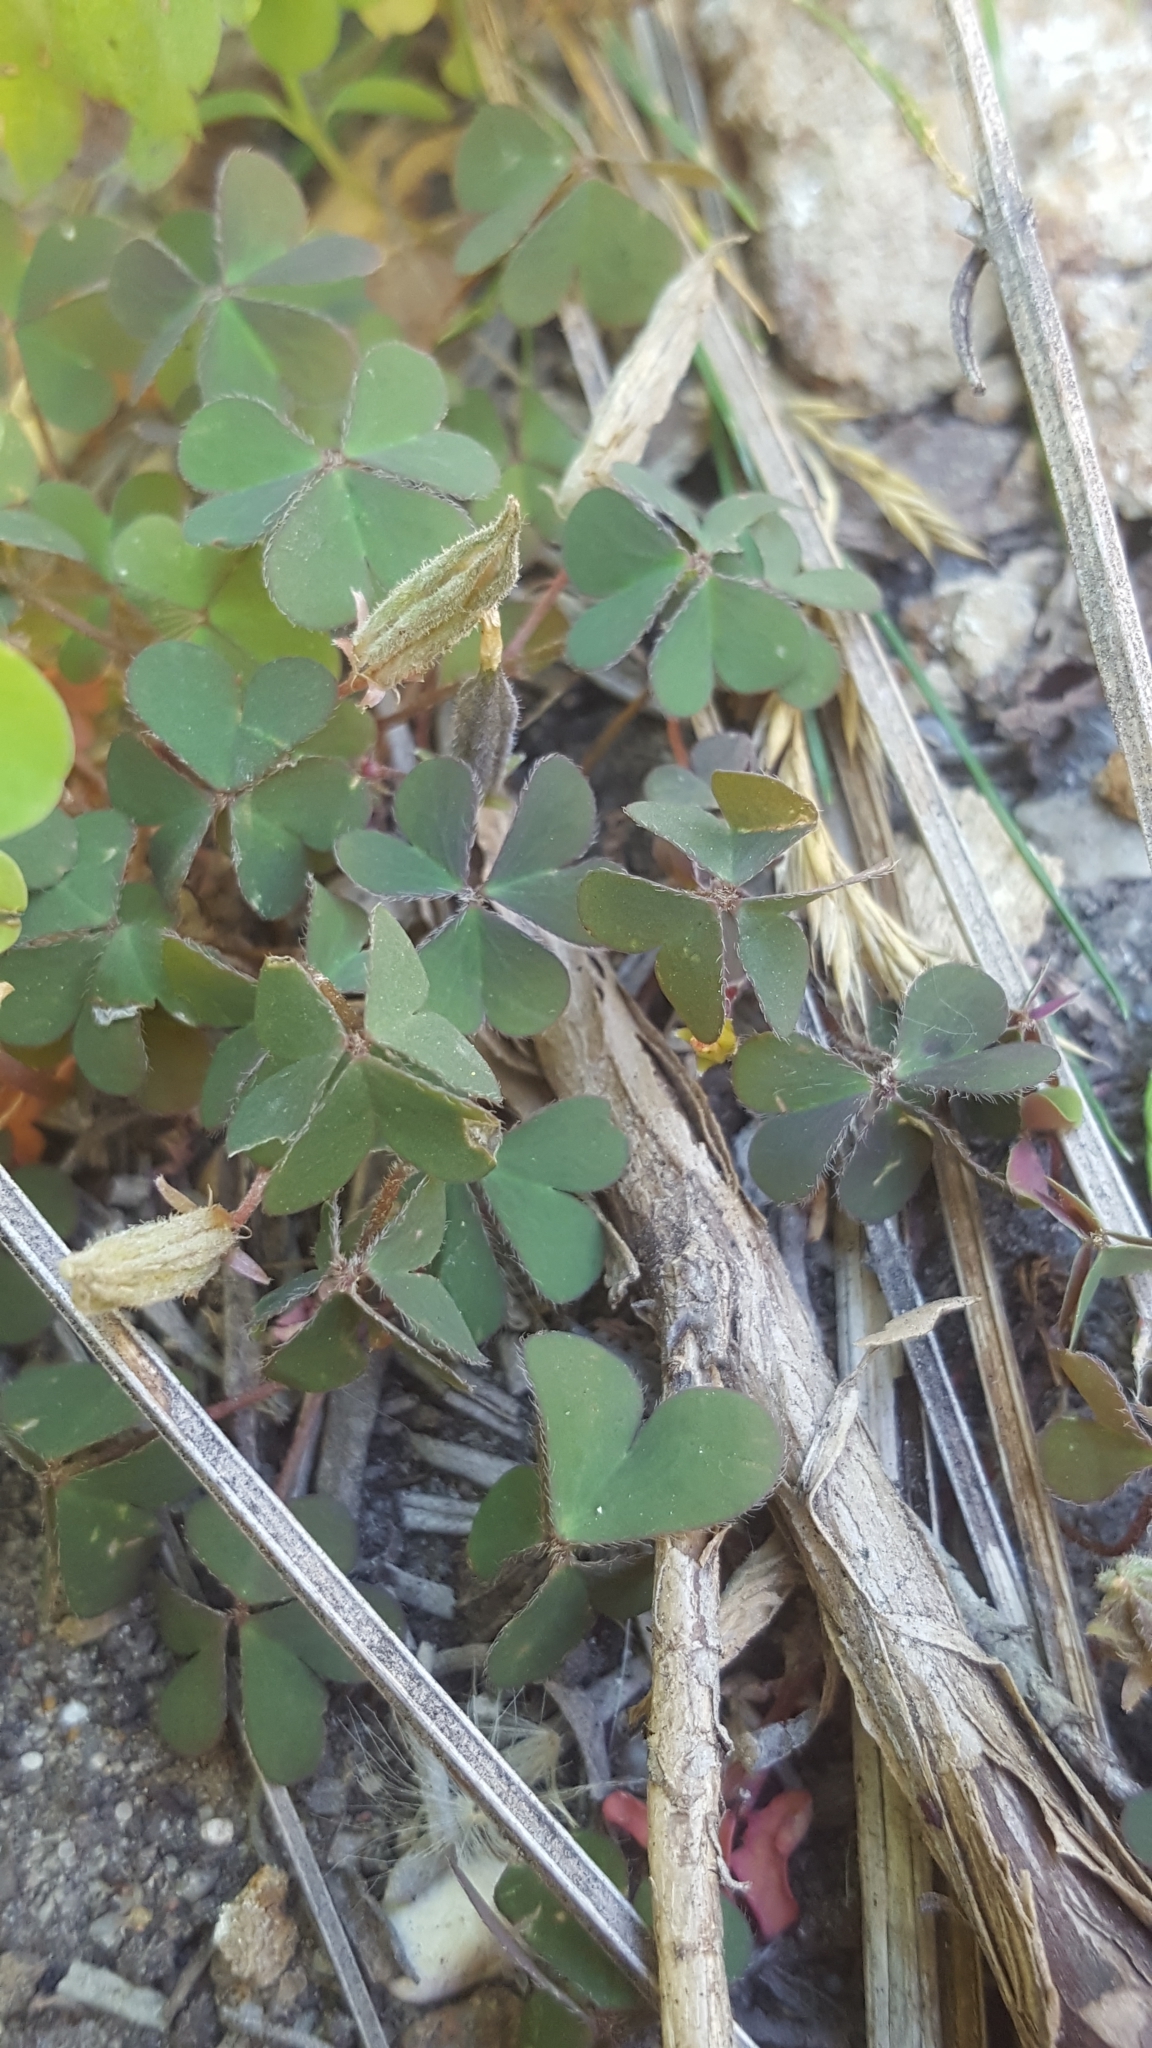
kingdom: Plantae
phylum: Tracheophyta
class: Magnoliopsida
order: Oxalidales
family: Oxalidaceae
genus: Oxalis
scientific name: Oxalis corniculata
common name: Procumbent yellow-sorrel
